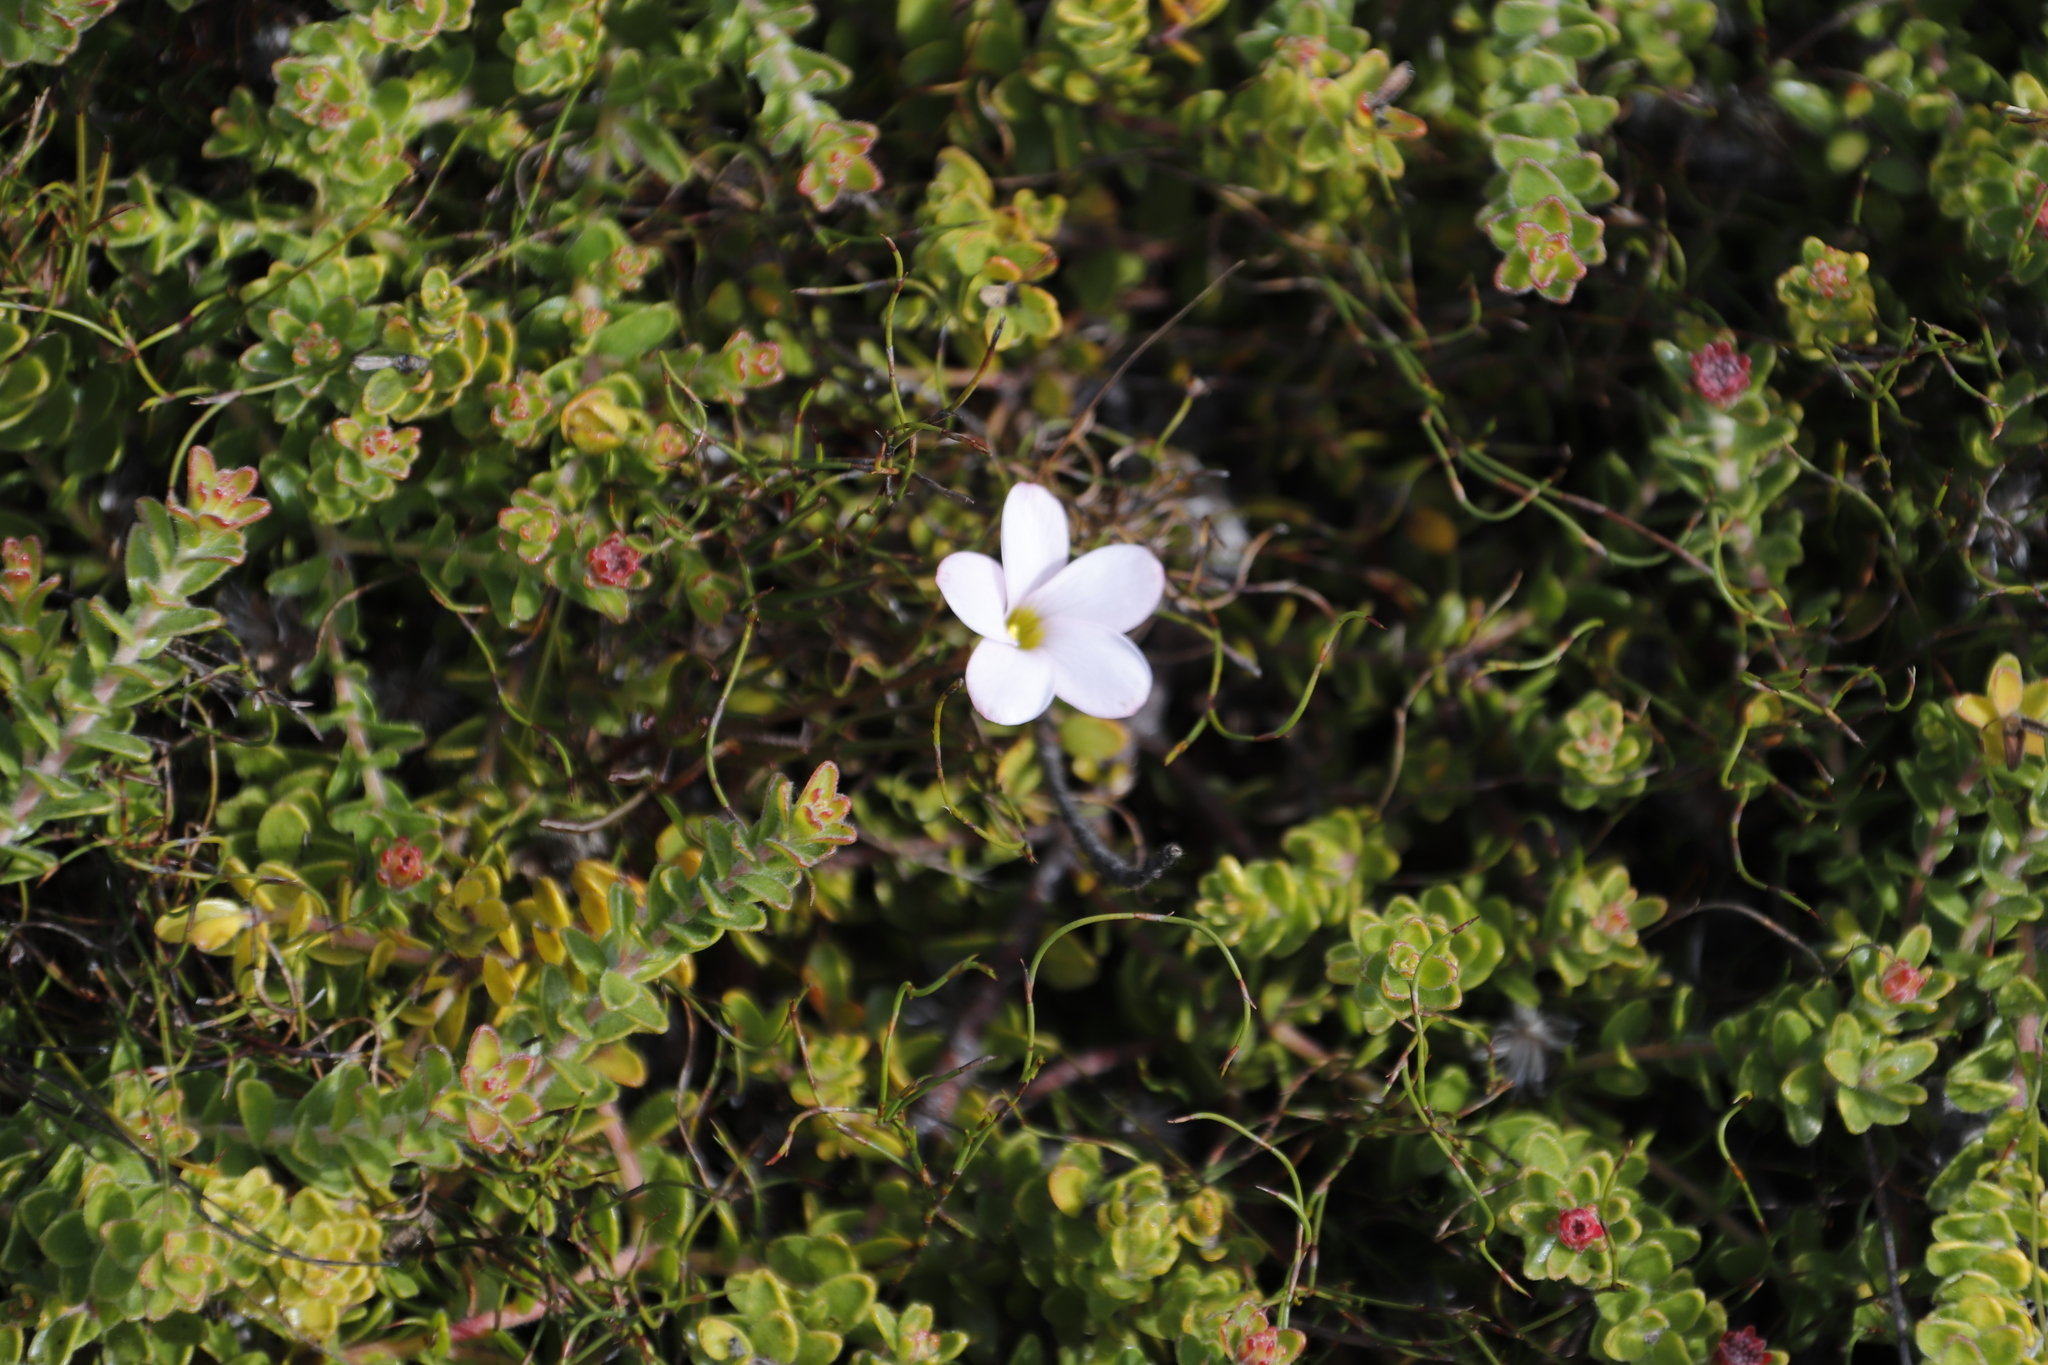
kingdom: Plantae
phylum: Tracheophyta
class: Magnoliopsida
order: Oxalidales
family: Oxalidaceae
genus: Oxalis
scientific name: Oxalis polyphylla
